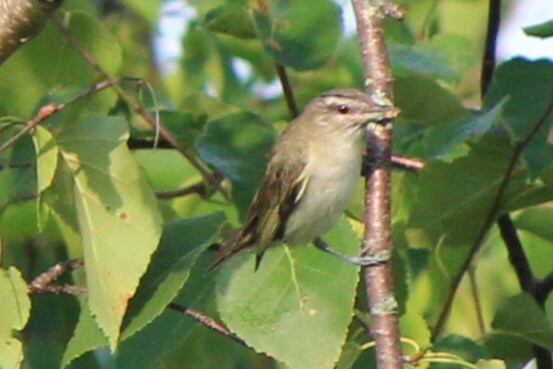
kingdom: Animalia
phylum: Chordata
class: Aves
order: Passeriformes
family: Vireonidae
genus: Vireo
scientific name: Vireo olivaceus
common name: Red-eyed vireo
